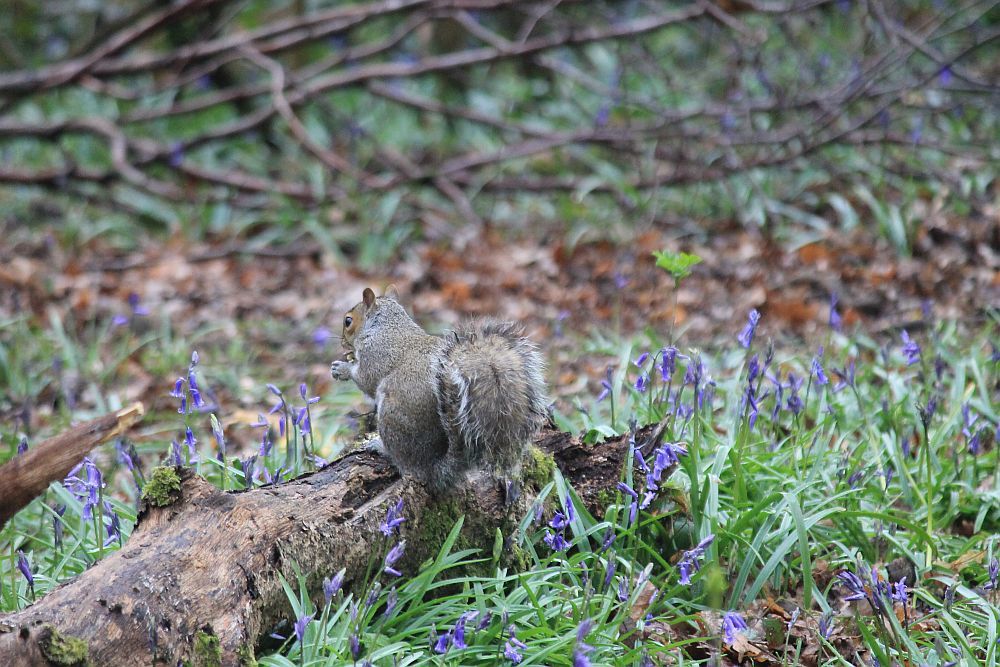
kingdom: Animalia
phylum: Chordata
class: Mammalia
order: Rodentia
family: Sciuridae
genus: Sciurus
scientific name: Sciurus carolinensis
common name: Eastern gray squirrel
